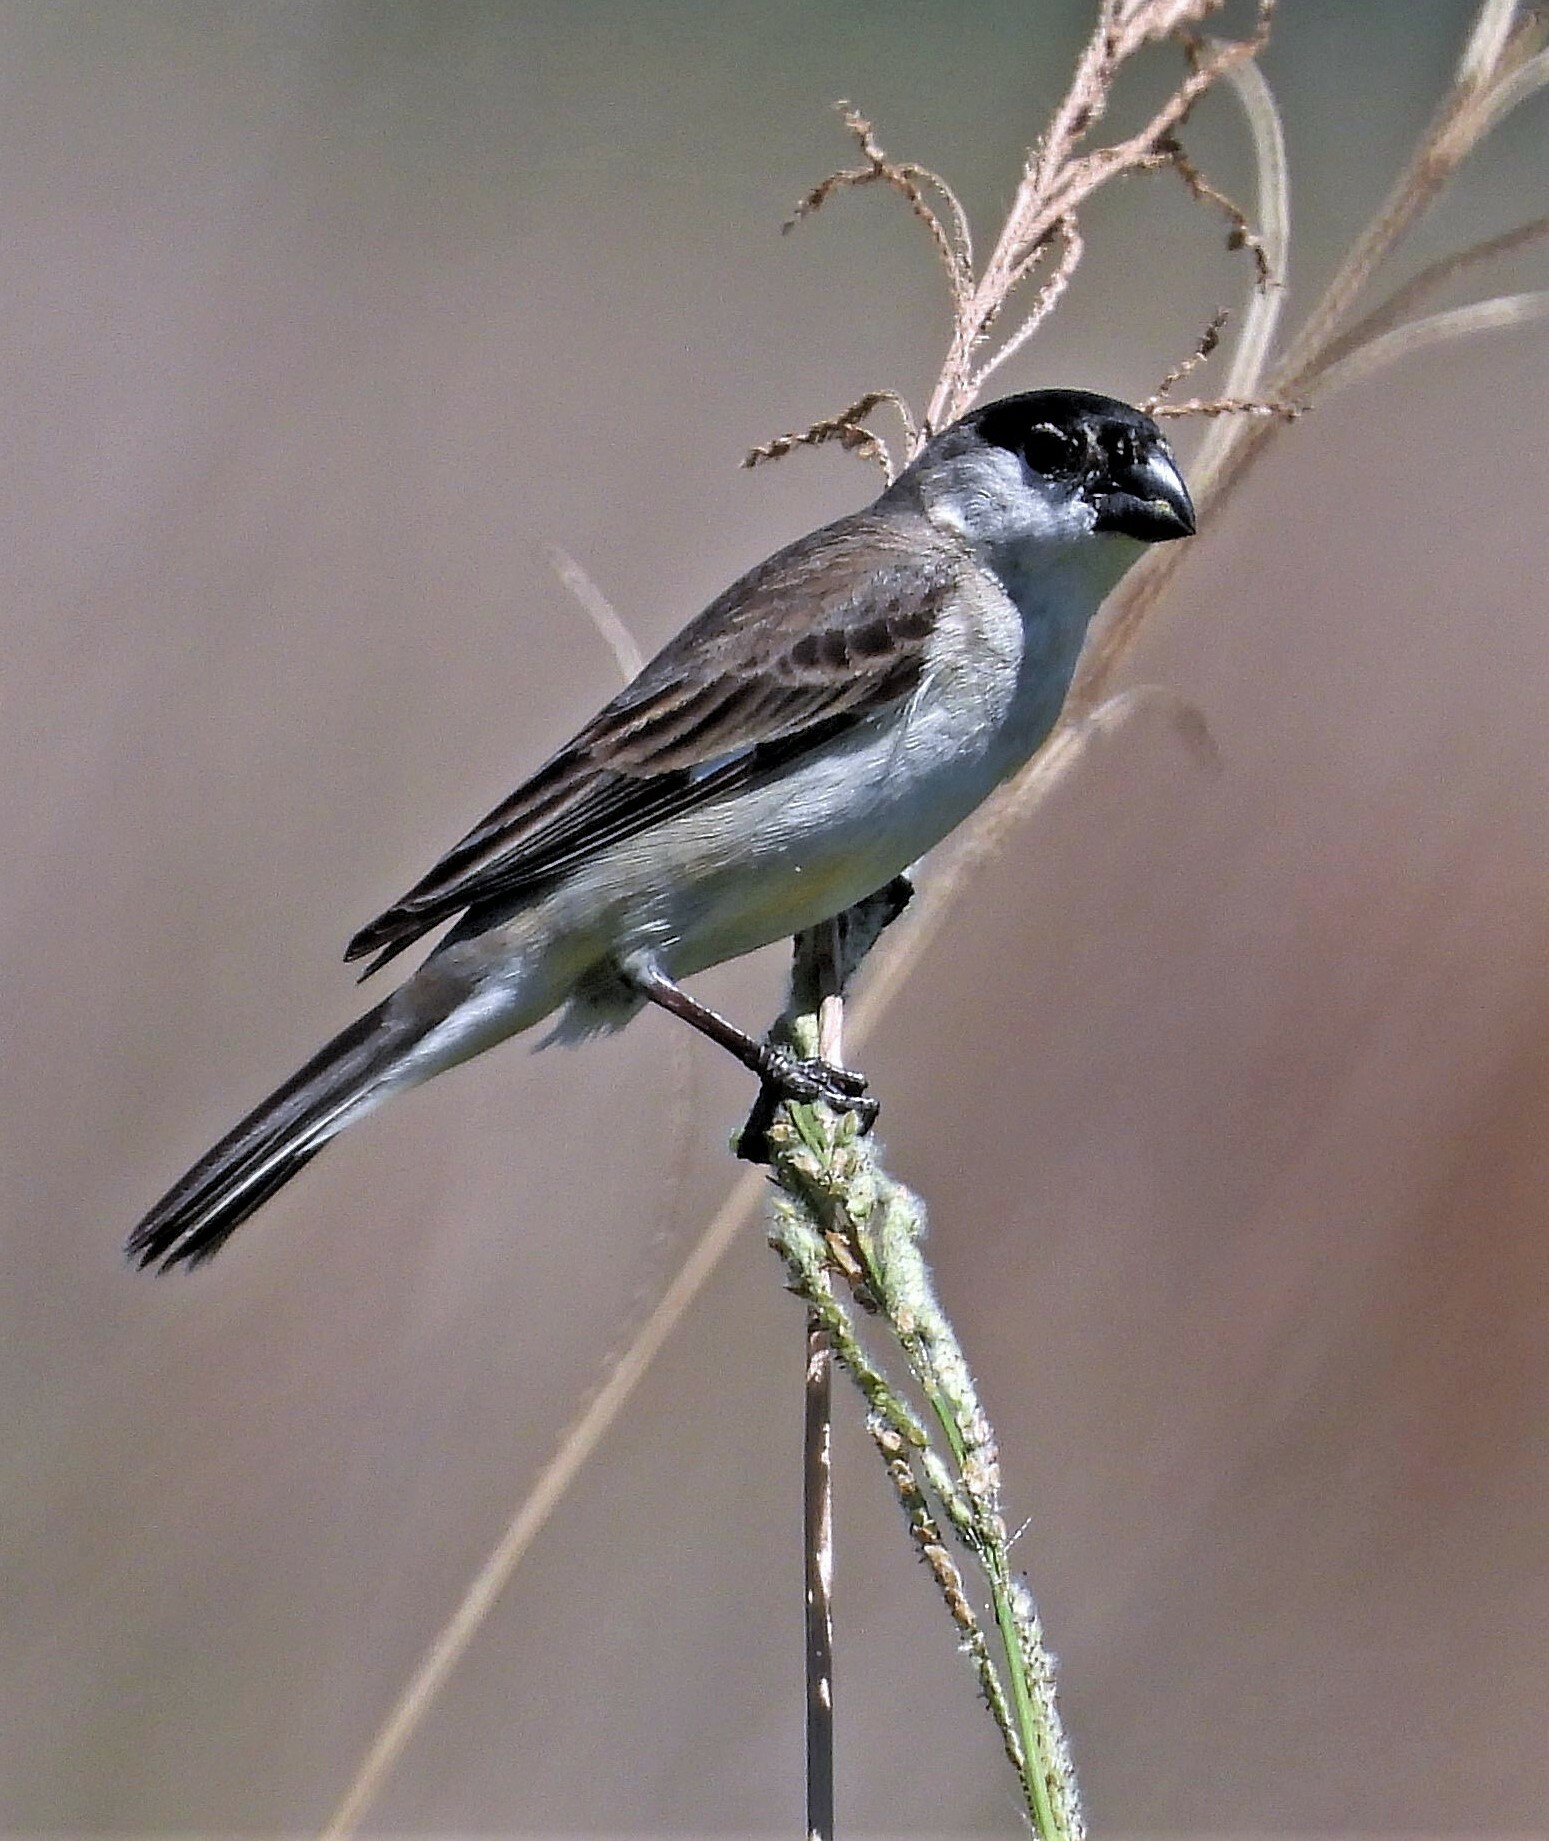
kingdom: Animalia
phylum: Chordata
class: Aves
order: Passeriformes
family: Thraupidae
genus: Sporophila
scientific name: Sporophila pileata
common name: Pearly-bellied seedeater
